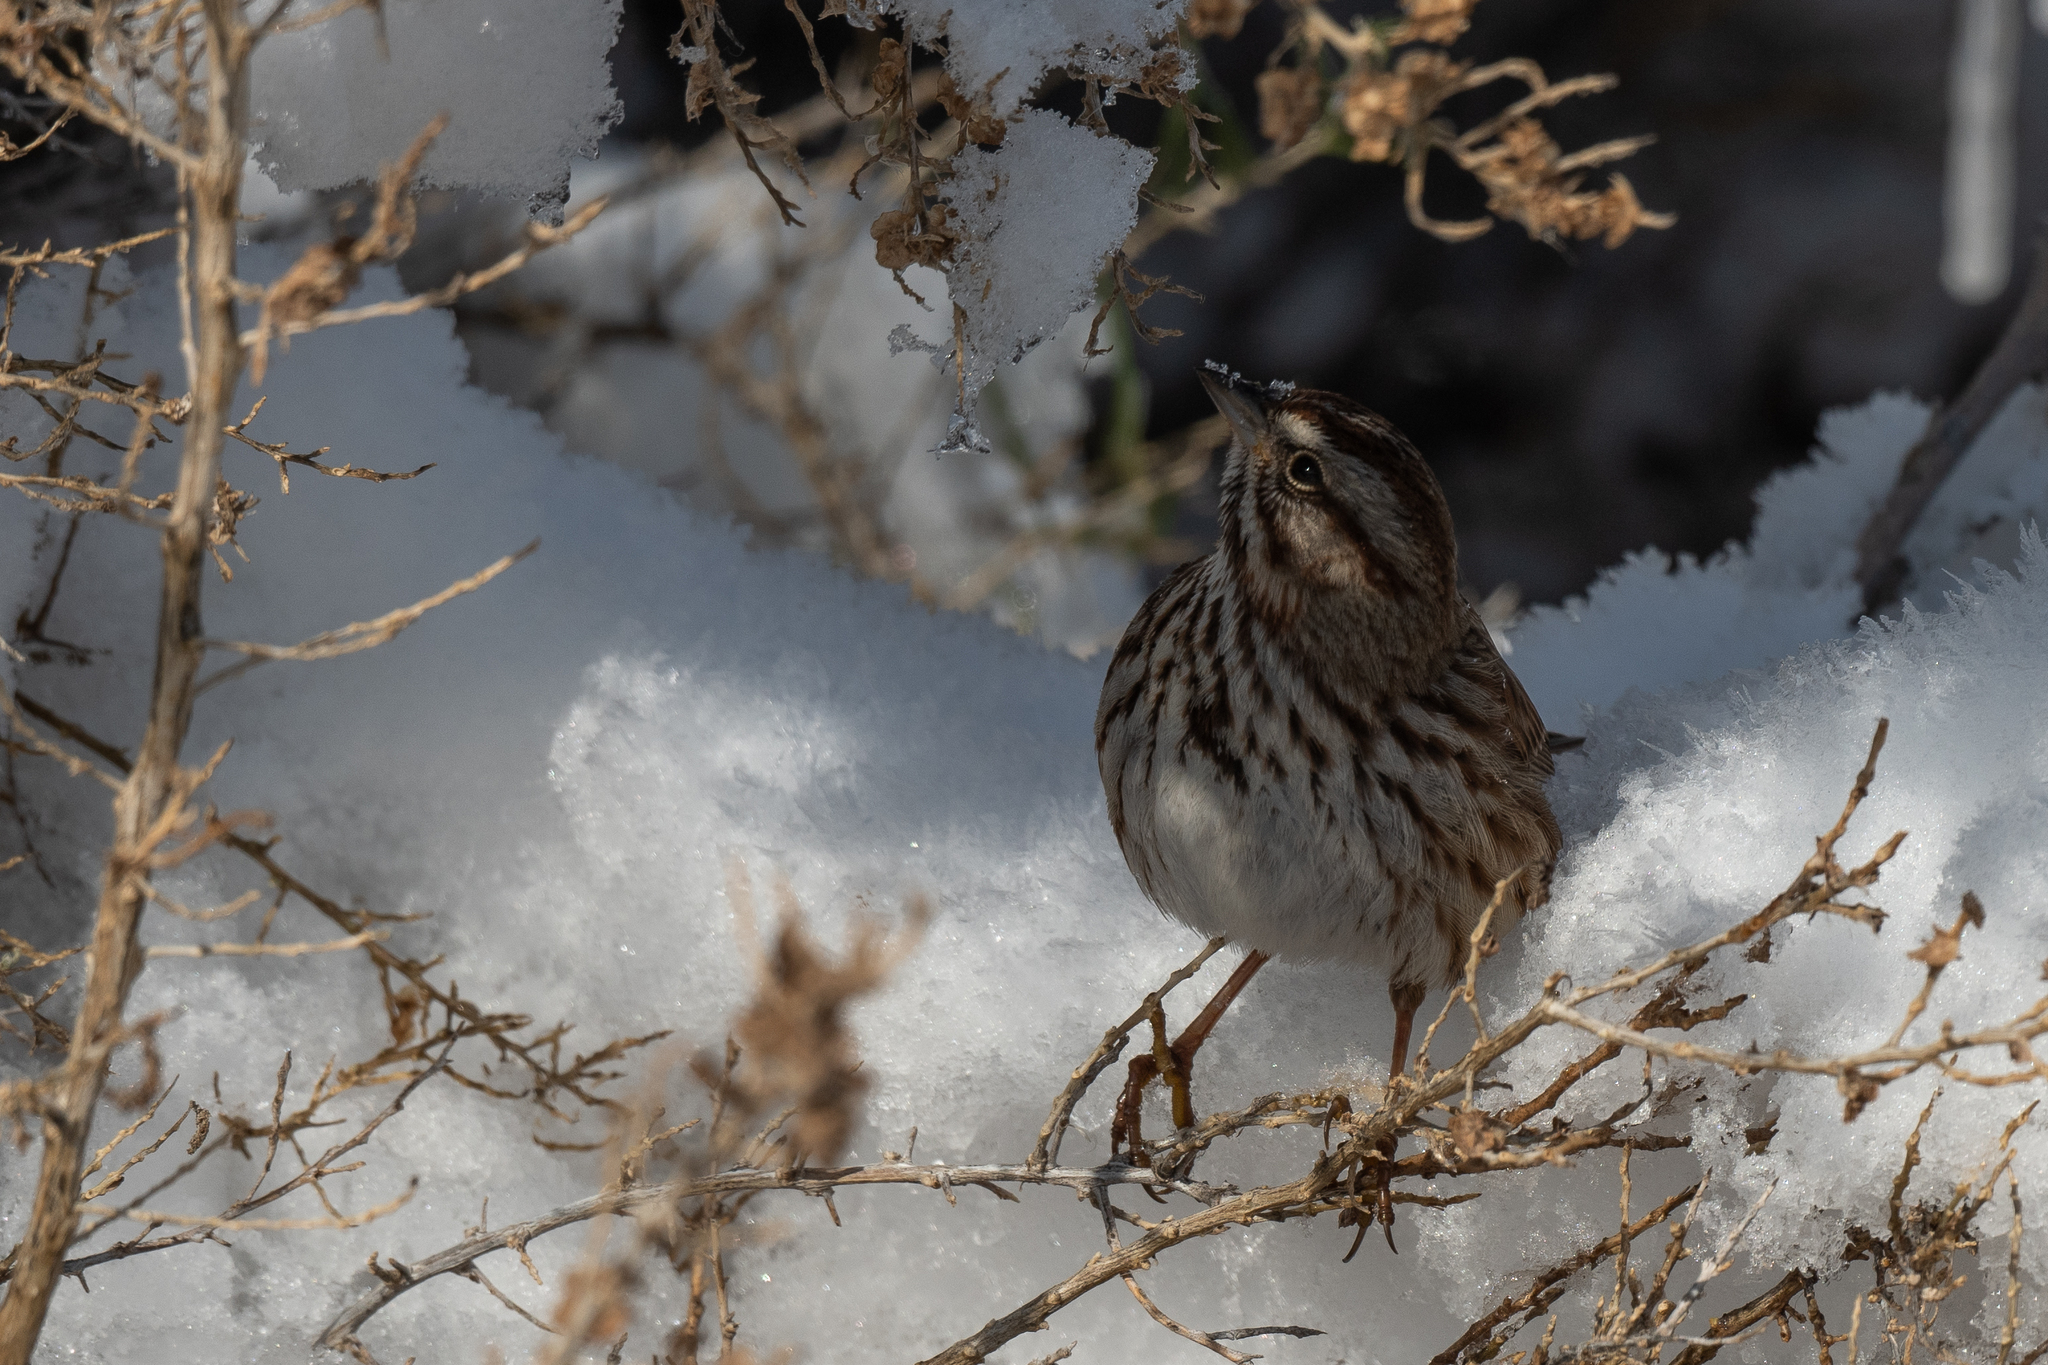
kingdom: Animalia
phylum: Chordata
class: Aves
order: Passeriformes
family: Passerellidae
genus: Melospiza
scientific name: Melospiza melodia
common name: Song sparrow
